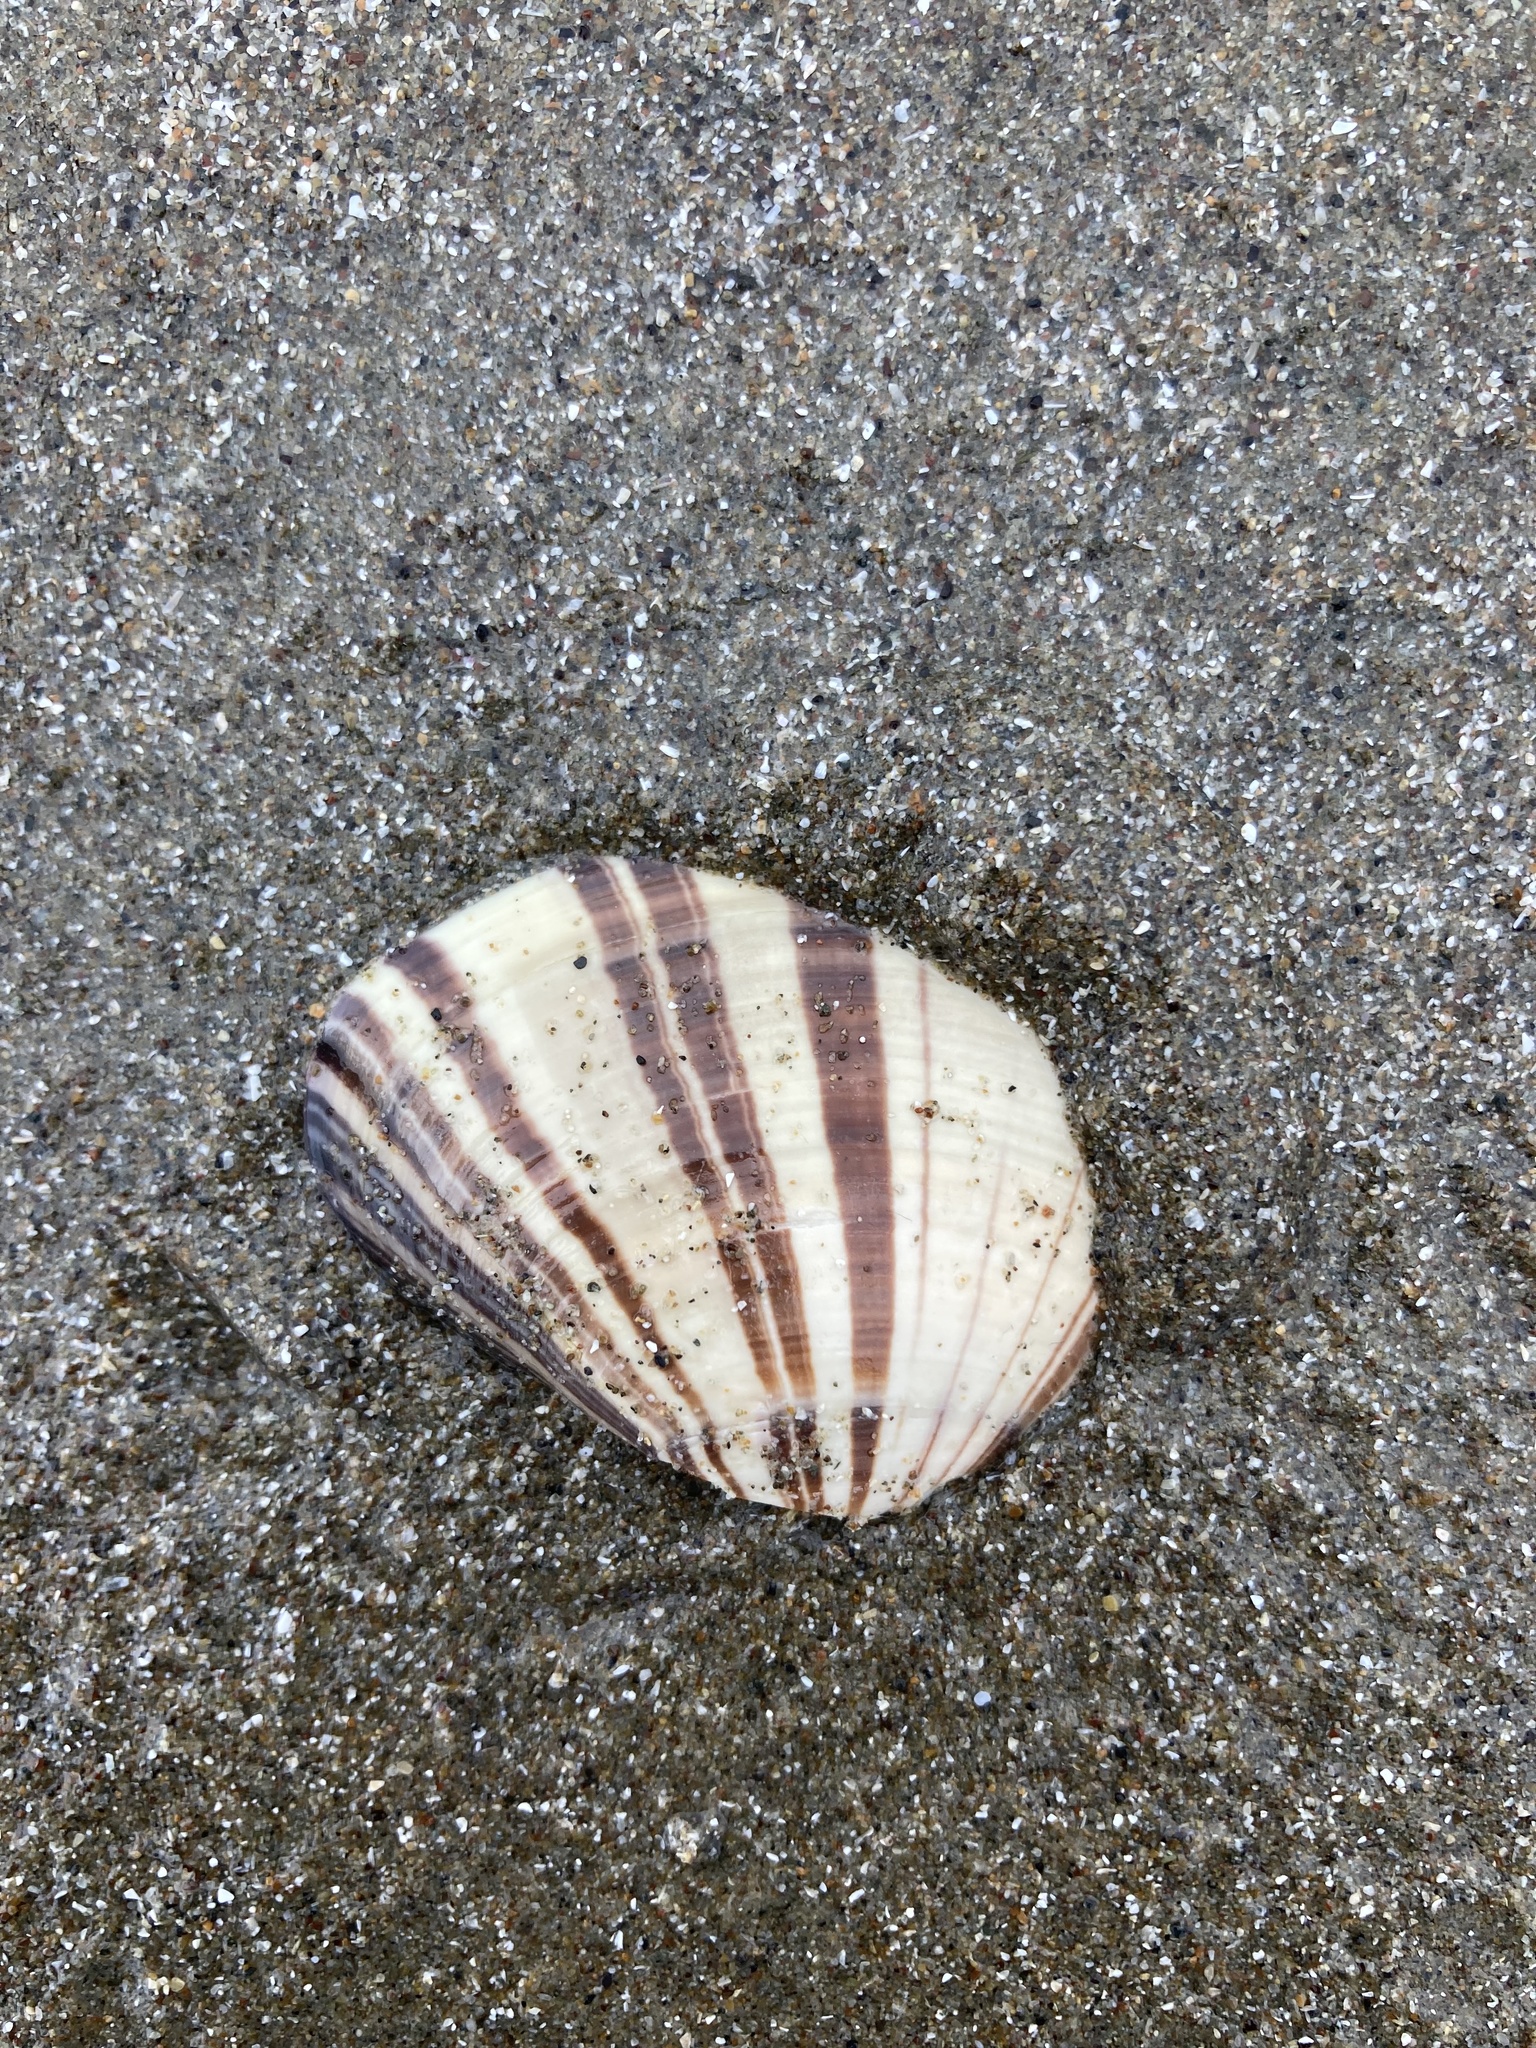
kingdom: Animalia
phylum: Mollusca
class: Bivalvia
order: Venerida
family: Veneridae
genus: Tivela
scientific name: Tivela stultorum
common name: Pismo clam
